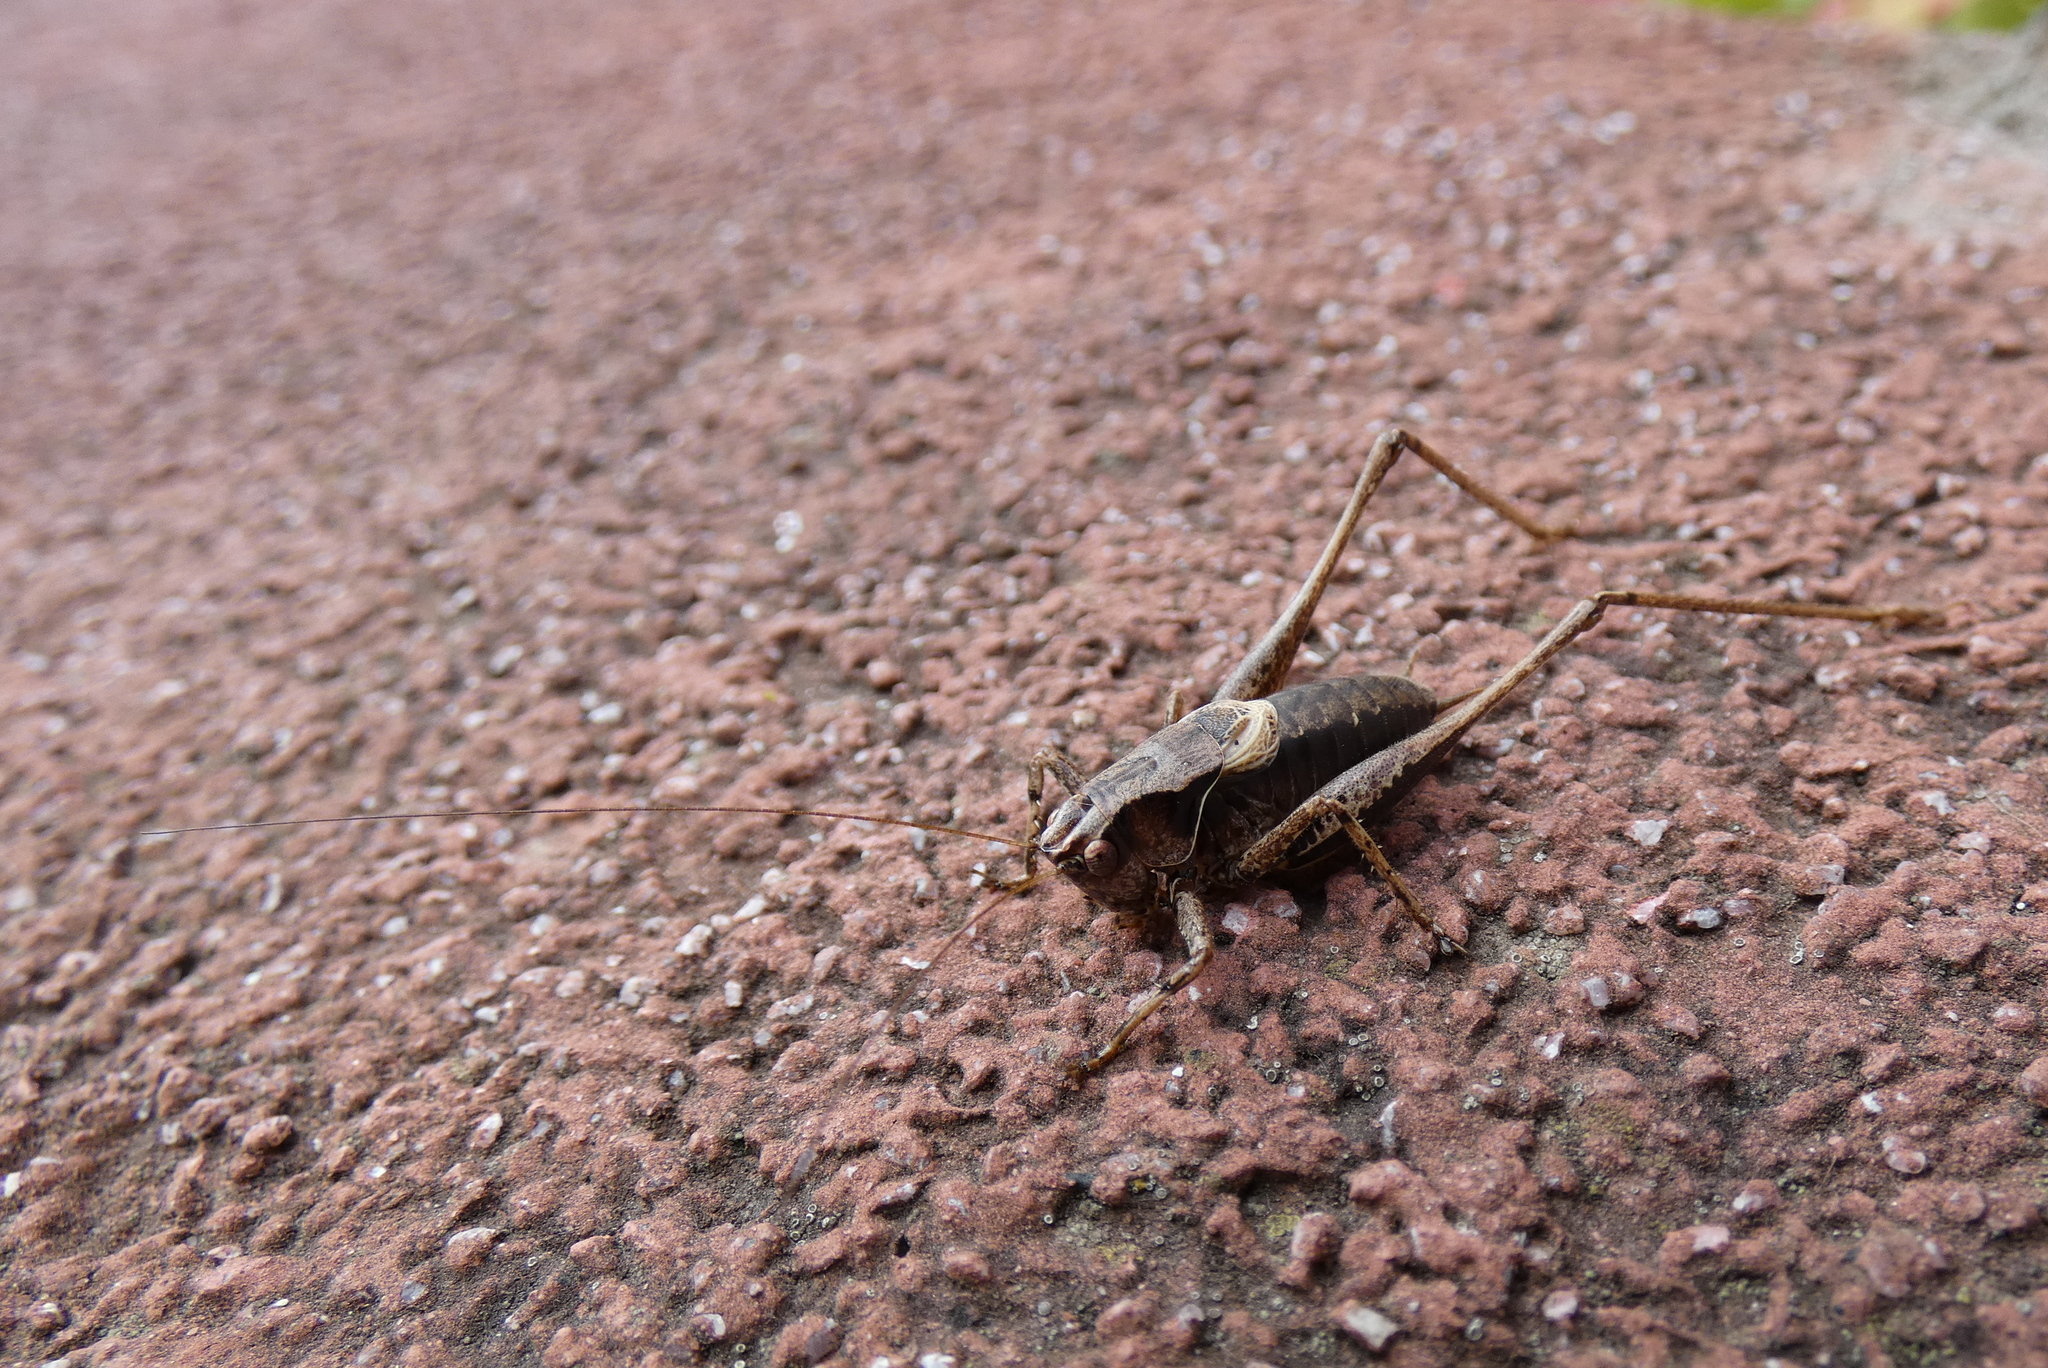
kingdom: Animalia
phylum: Arthropoda
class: Insecta
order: Orthoptera
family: Tettigoniidae
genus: Pholidoptera
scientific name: Pholidoptera griseoaptera
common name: Dark bush-cricket
